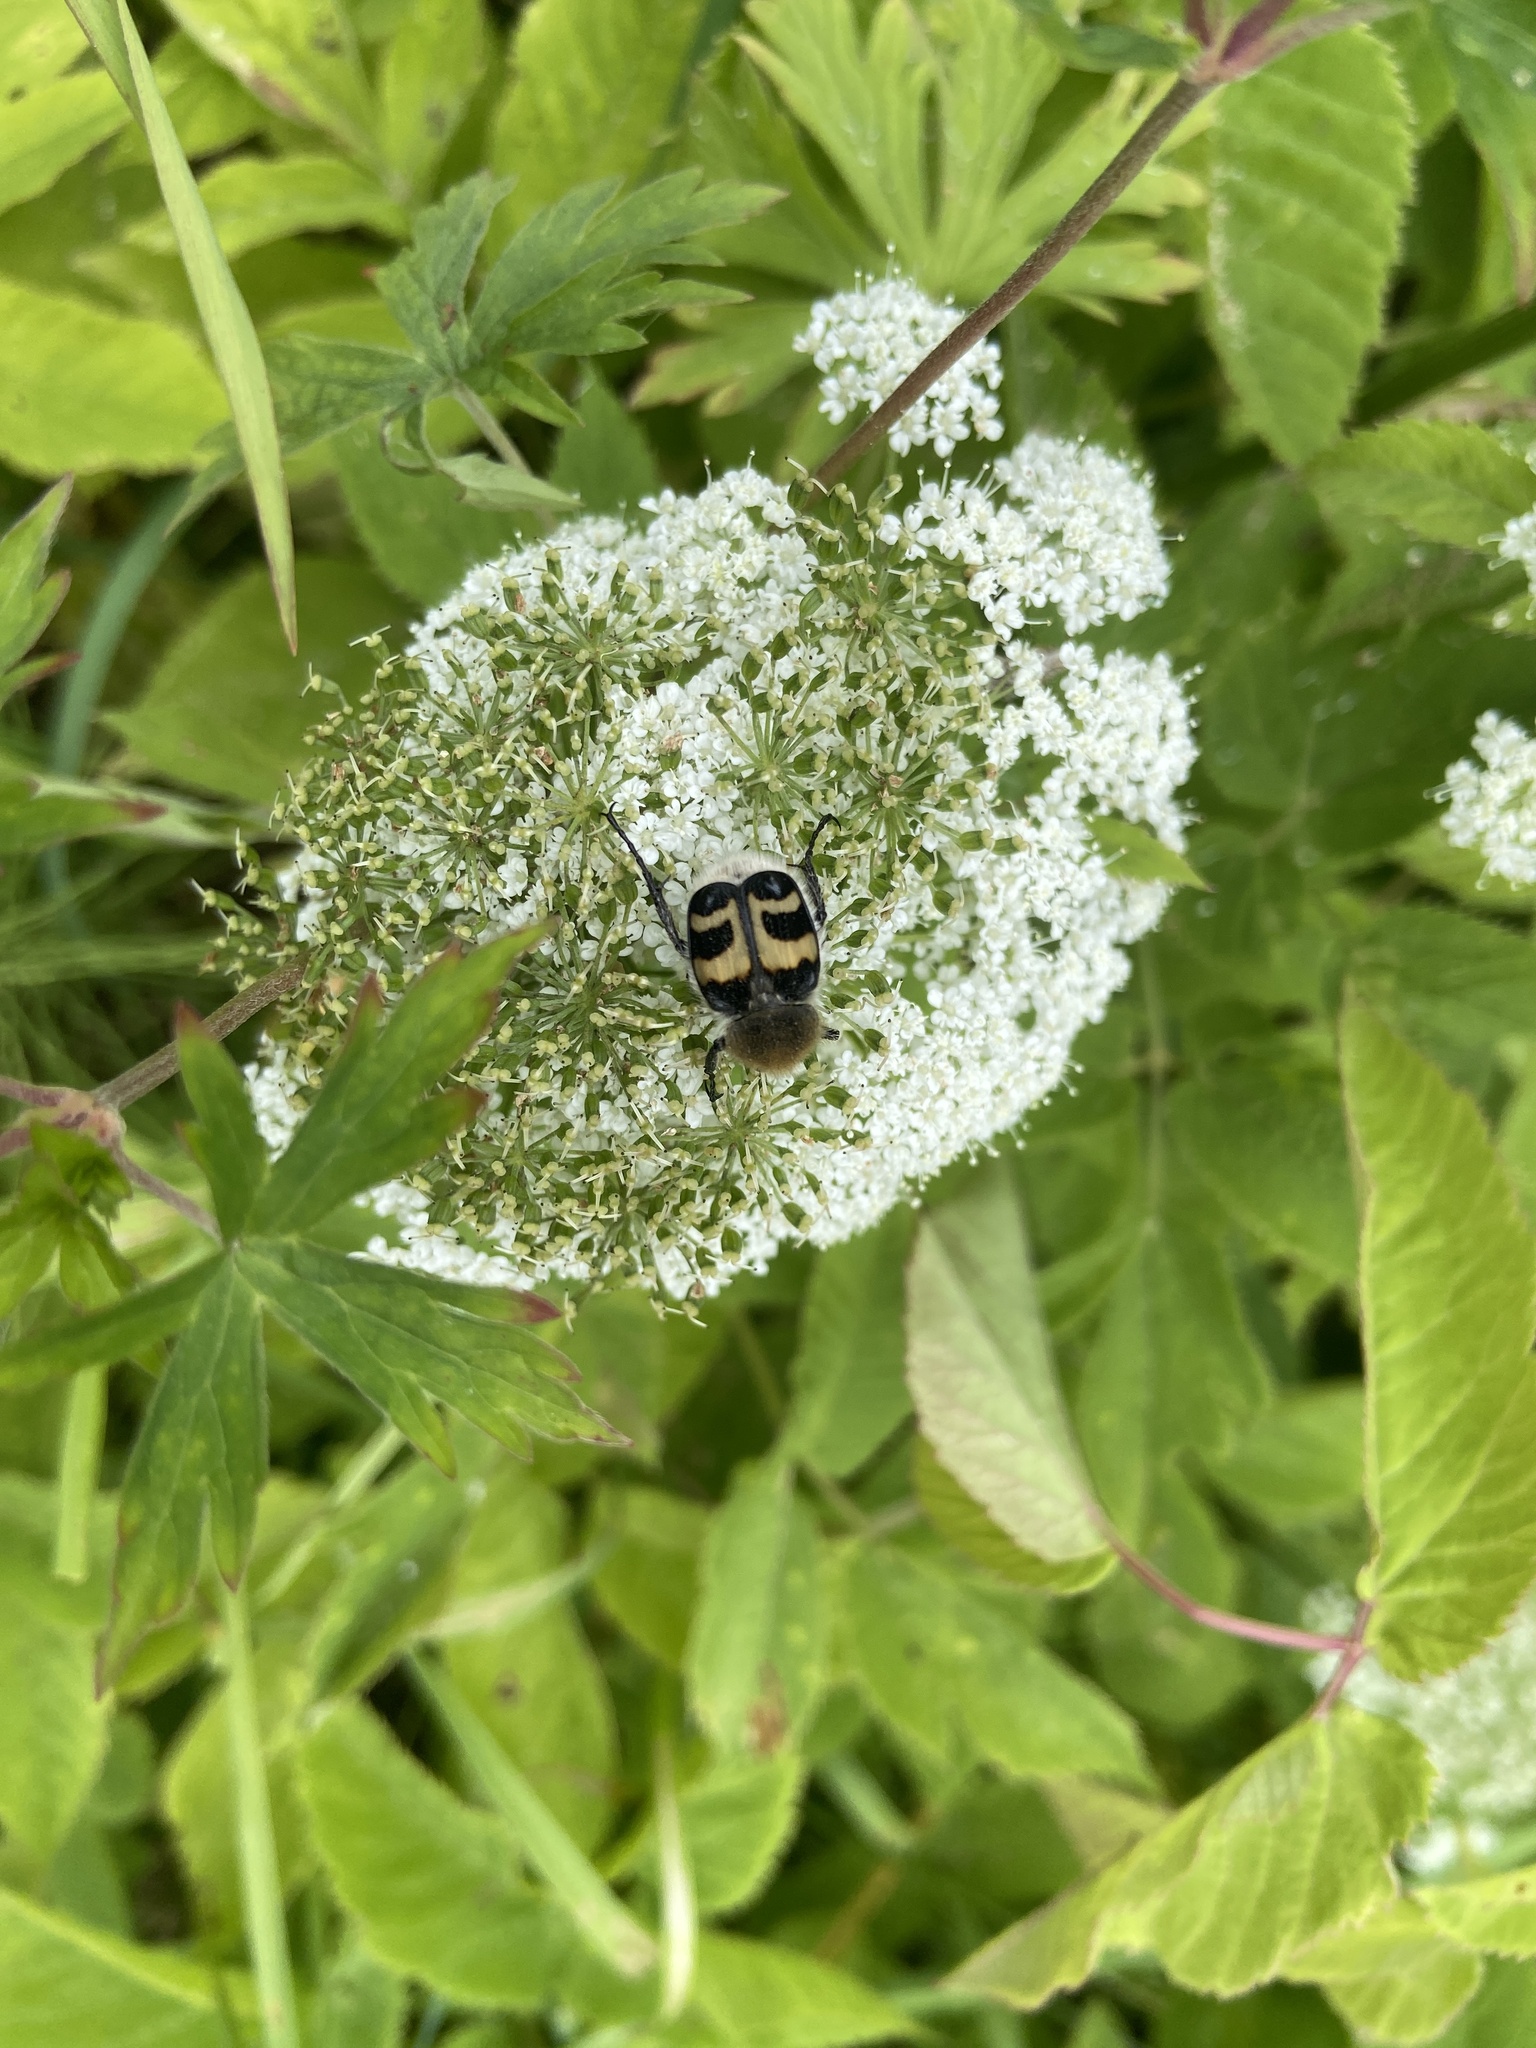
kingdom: Animalia
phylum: Arthropoda
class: Insecta
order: Coleoptera
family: Scarabaeidae
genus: Trichius
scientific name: Trichius fasciatus
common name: Bee beetle
